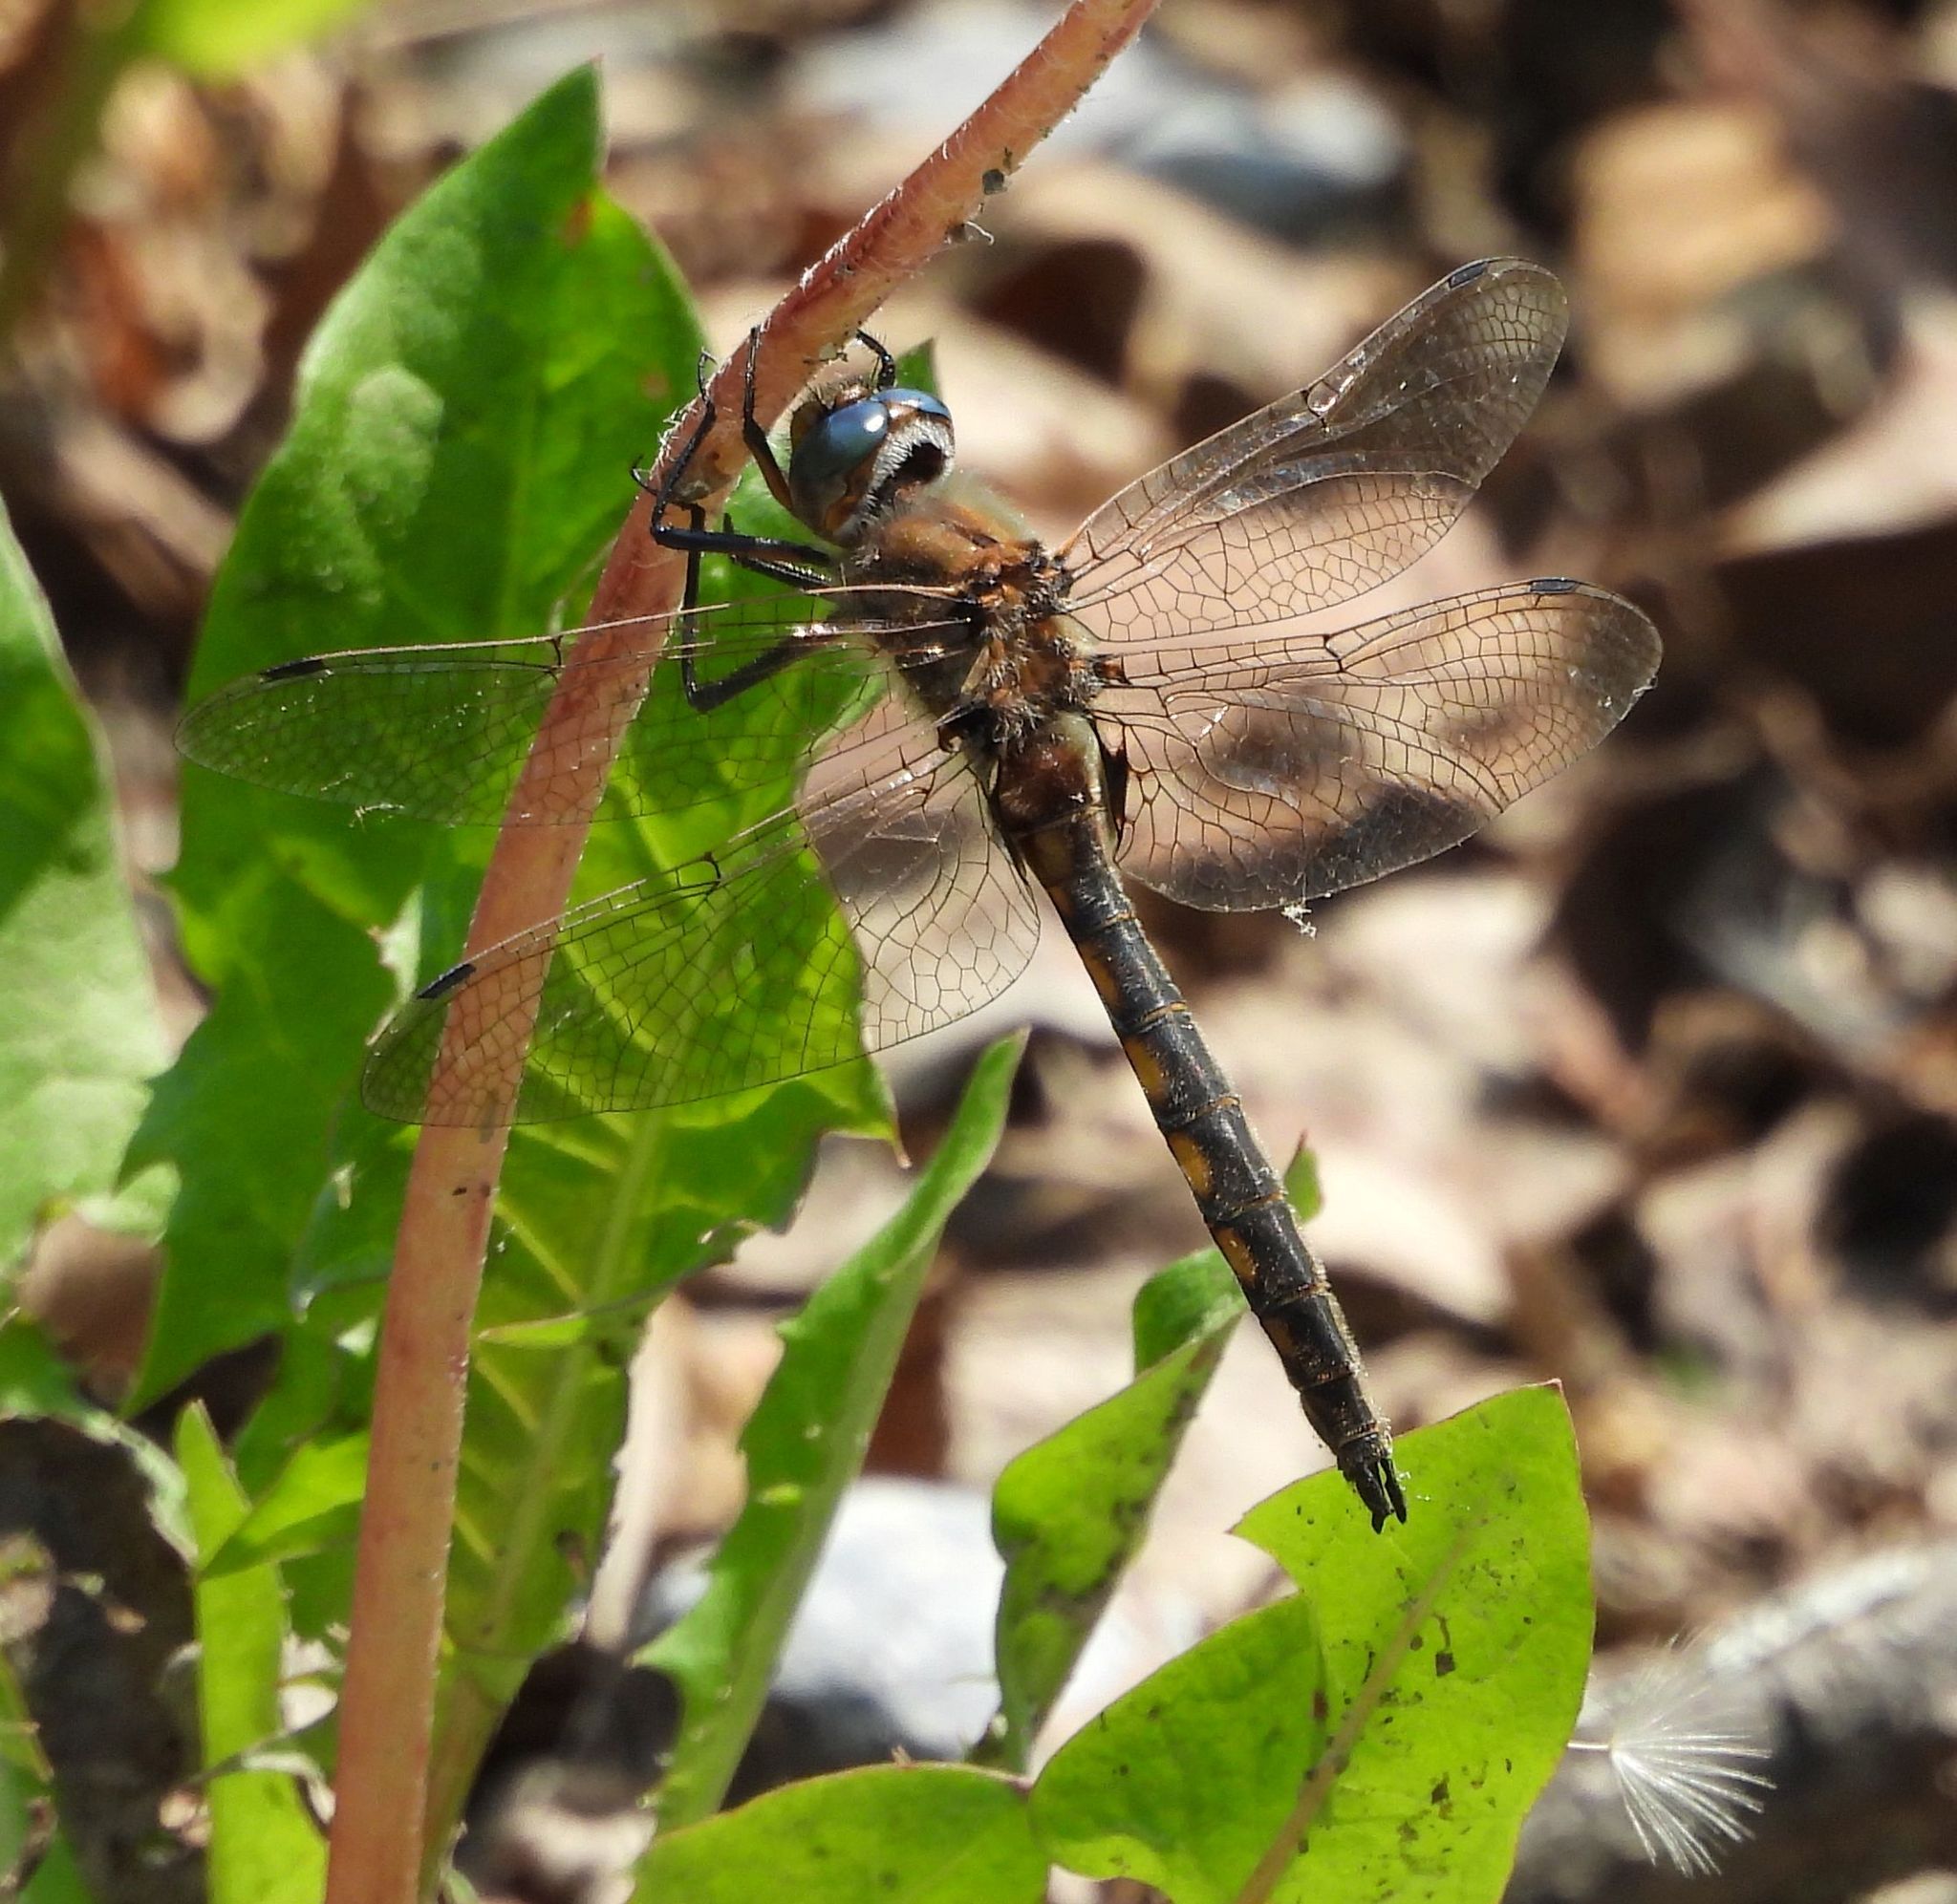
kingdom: Animalia
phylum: Arthropoda
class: Insecta
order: Odonata
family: Corduliidae
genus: Epitheca
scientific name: Epitheca canis
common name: Beaverpond baskettail
